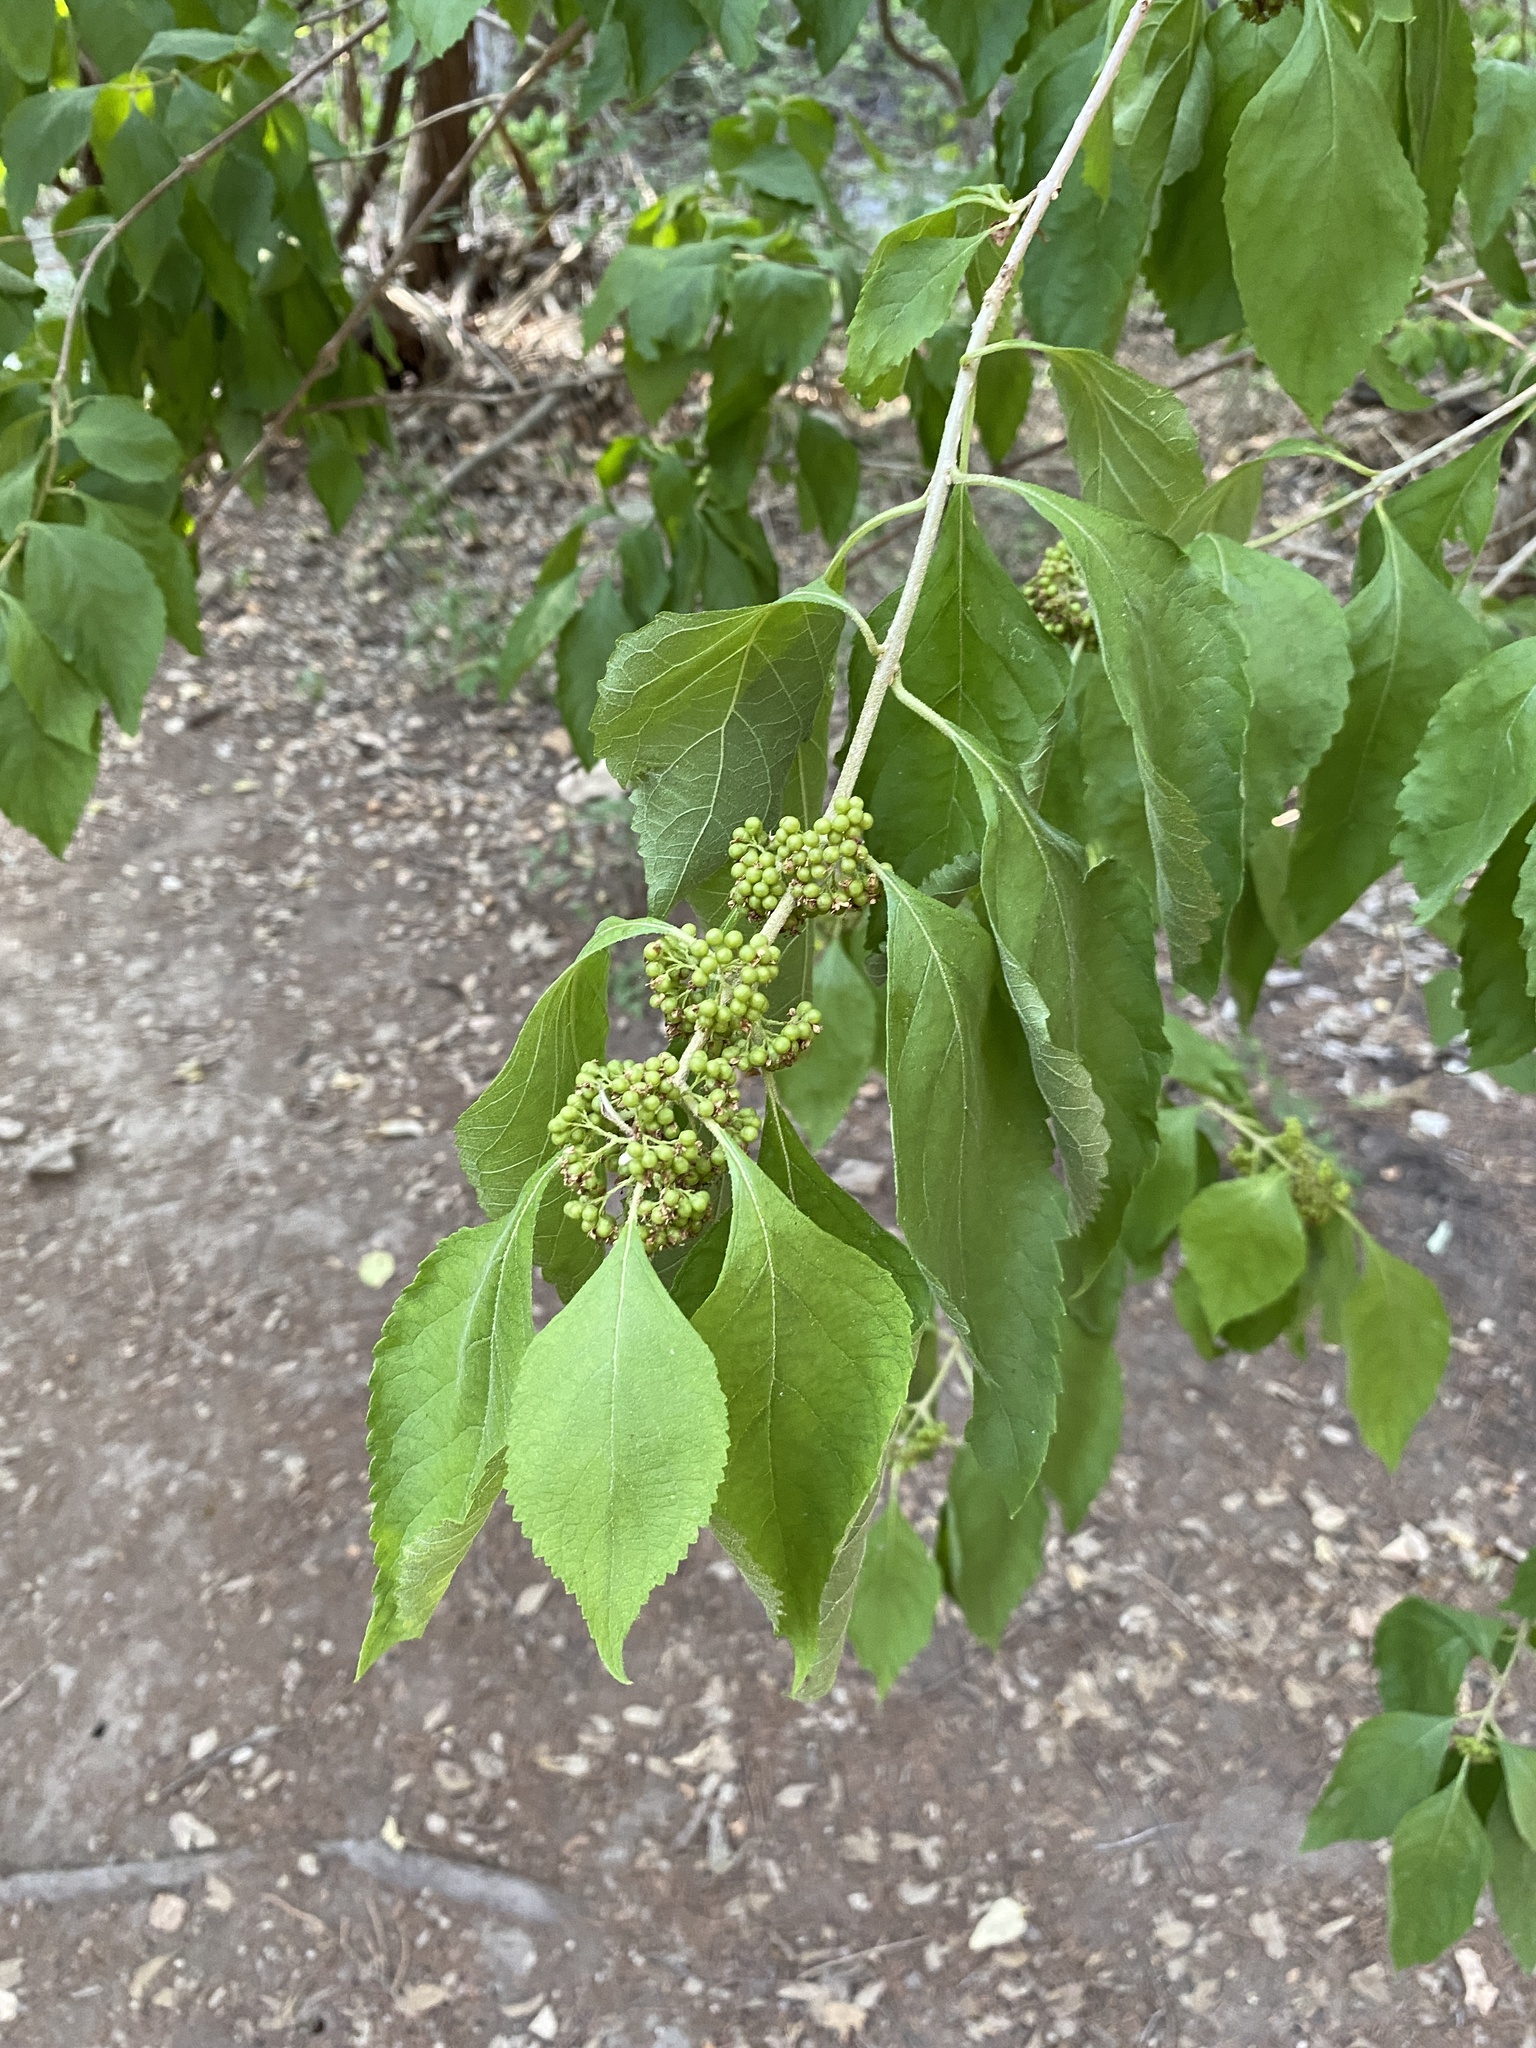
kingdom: Plantae
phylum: Tracheophyta
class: Magnoliopsida
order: Lamiales
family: Lamiaceae
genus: Callicarpa
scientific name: Callicarpa americana
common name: American beautyberry
